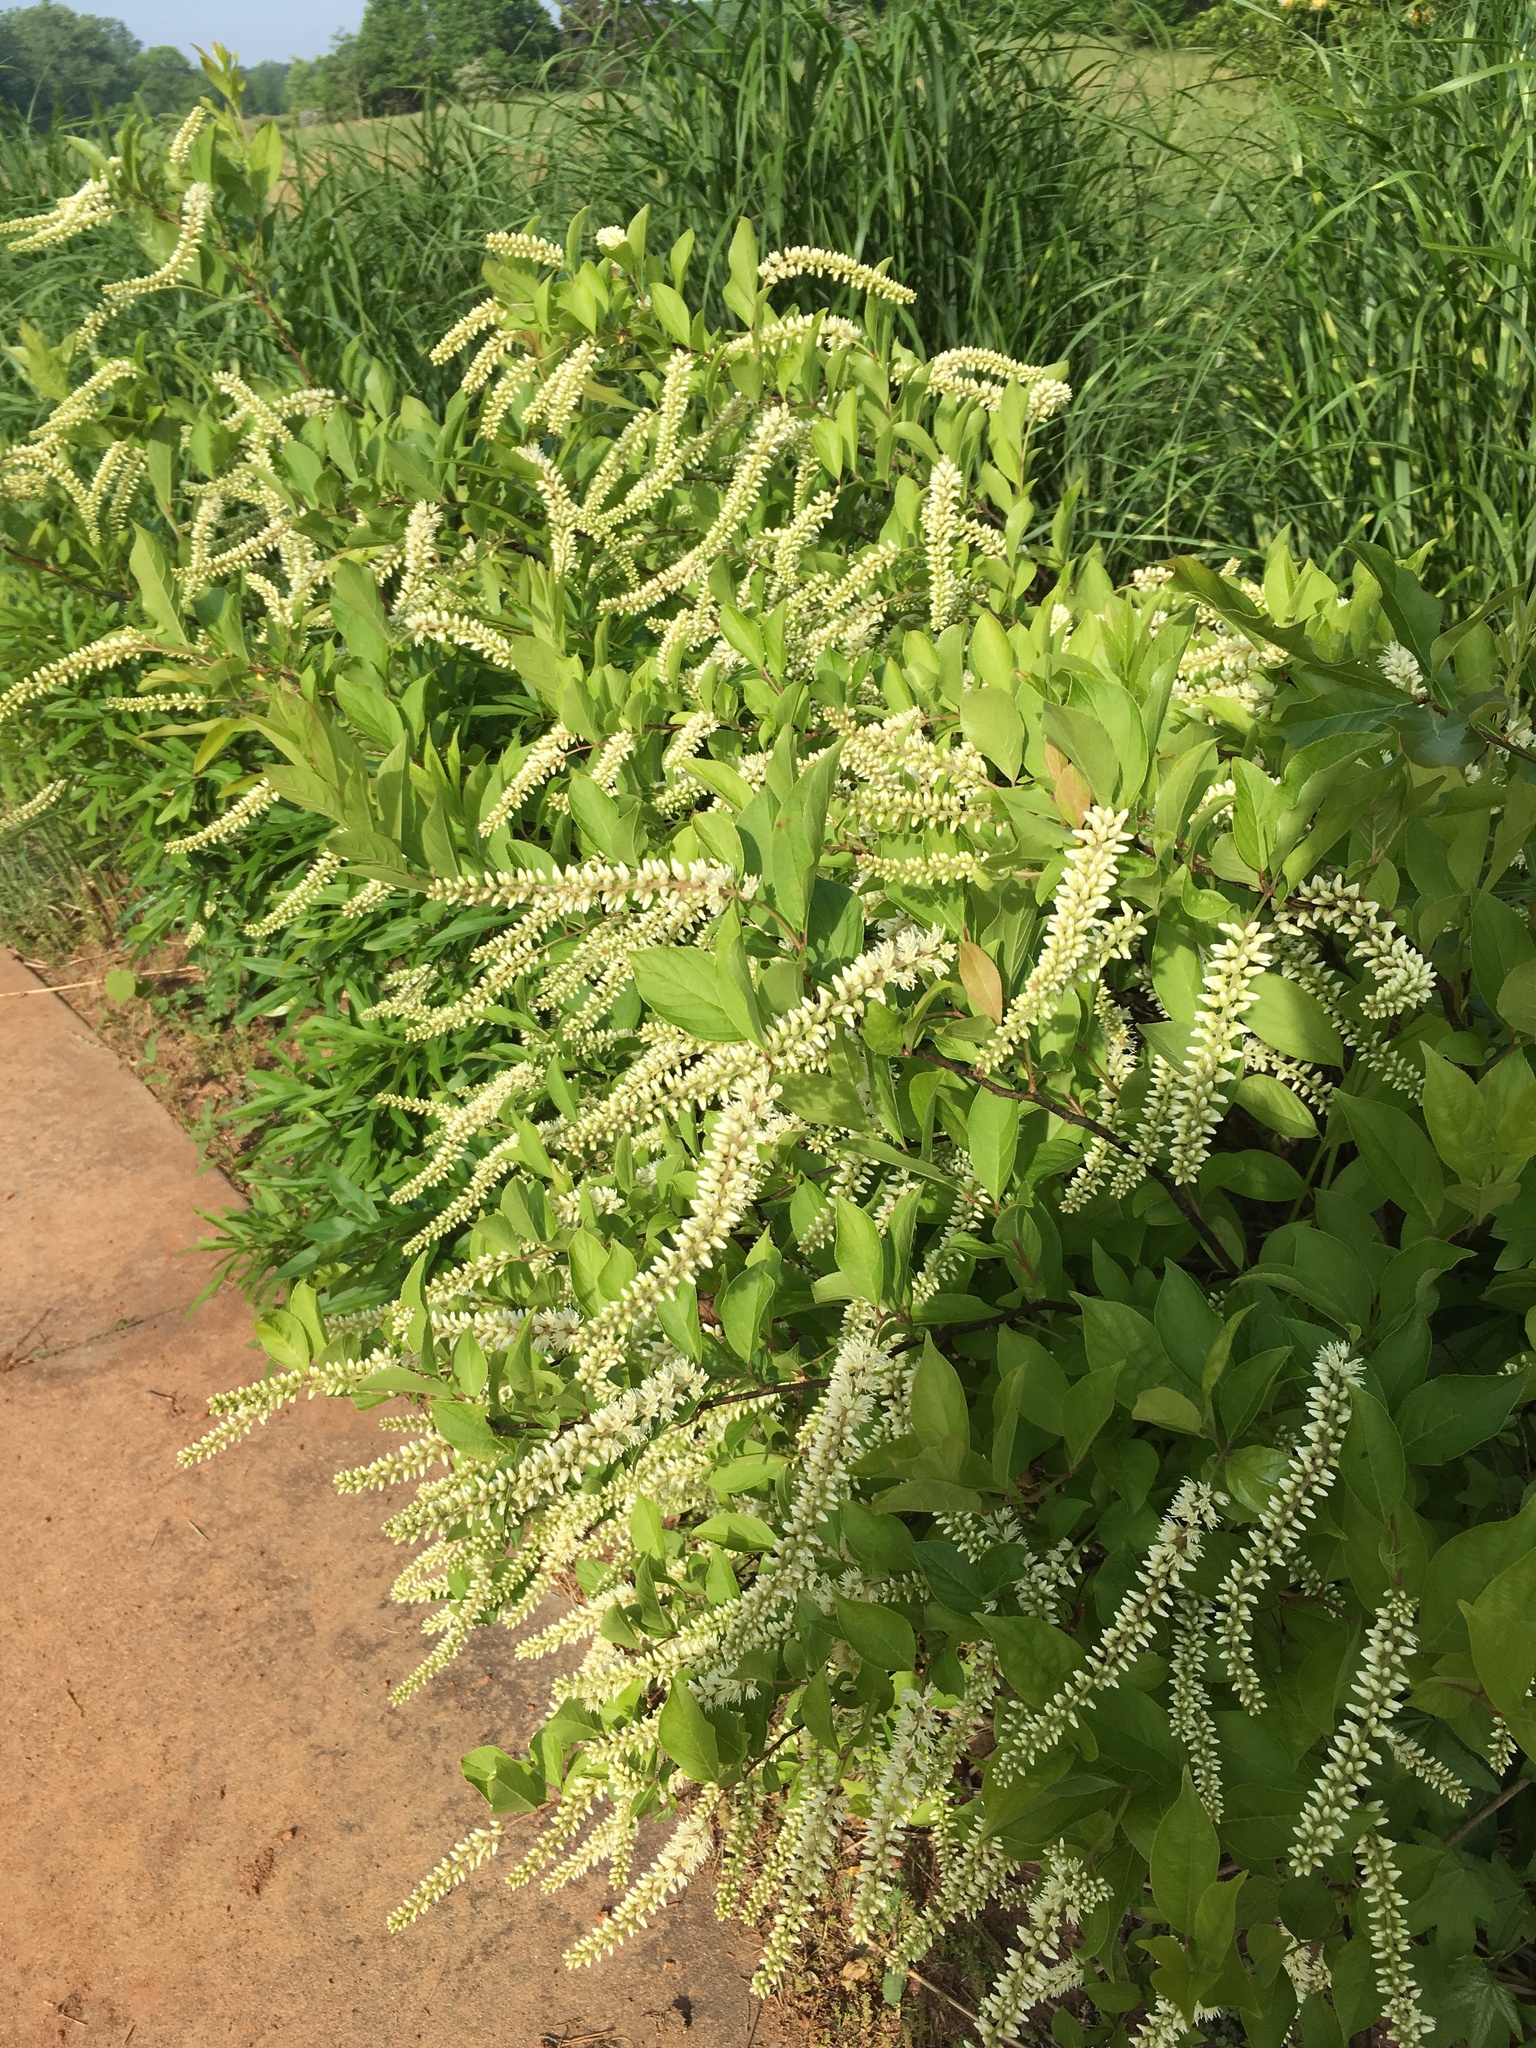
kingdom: Plantae
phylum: Tracheophyta
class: Magnoliopsida
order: Saxifragales
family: Iteaceae
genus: Itea
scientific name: Itea virginica
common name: Sweetspire
